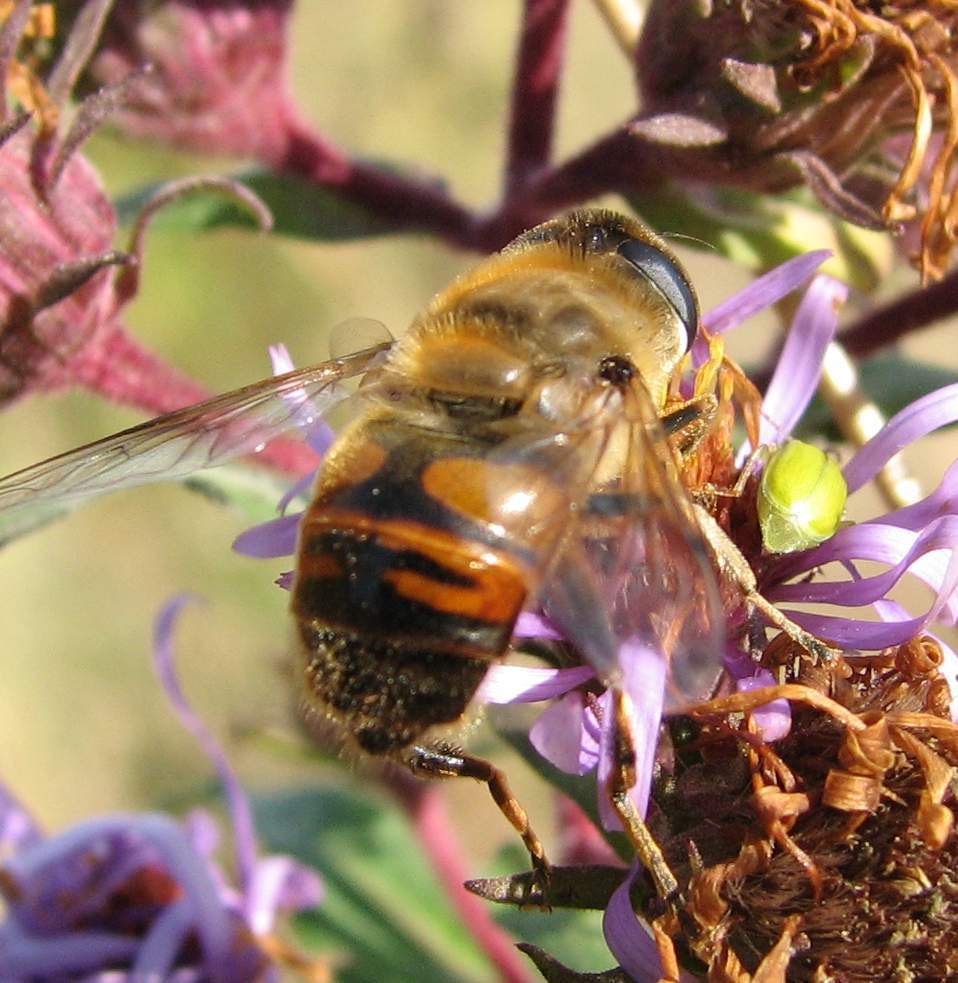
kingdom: Animalia
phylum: Arthropoda
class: Insecta
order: Diptera
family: Syrphidae
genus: Eristalis
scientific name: Eristalis tenax
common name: Drone fly
